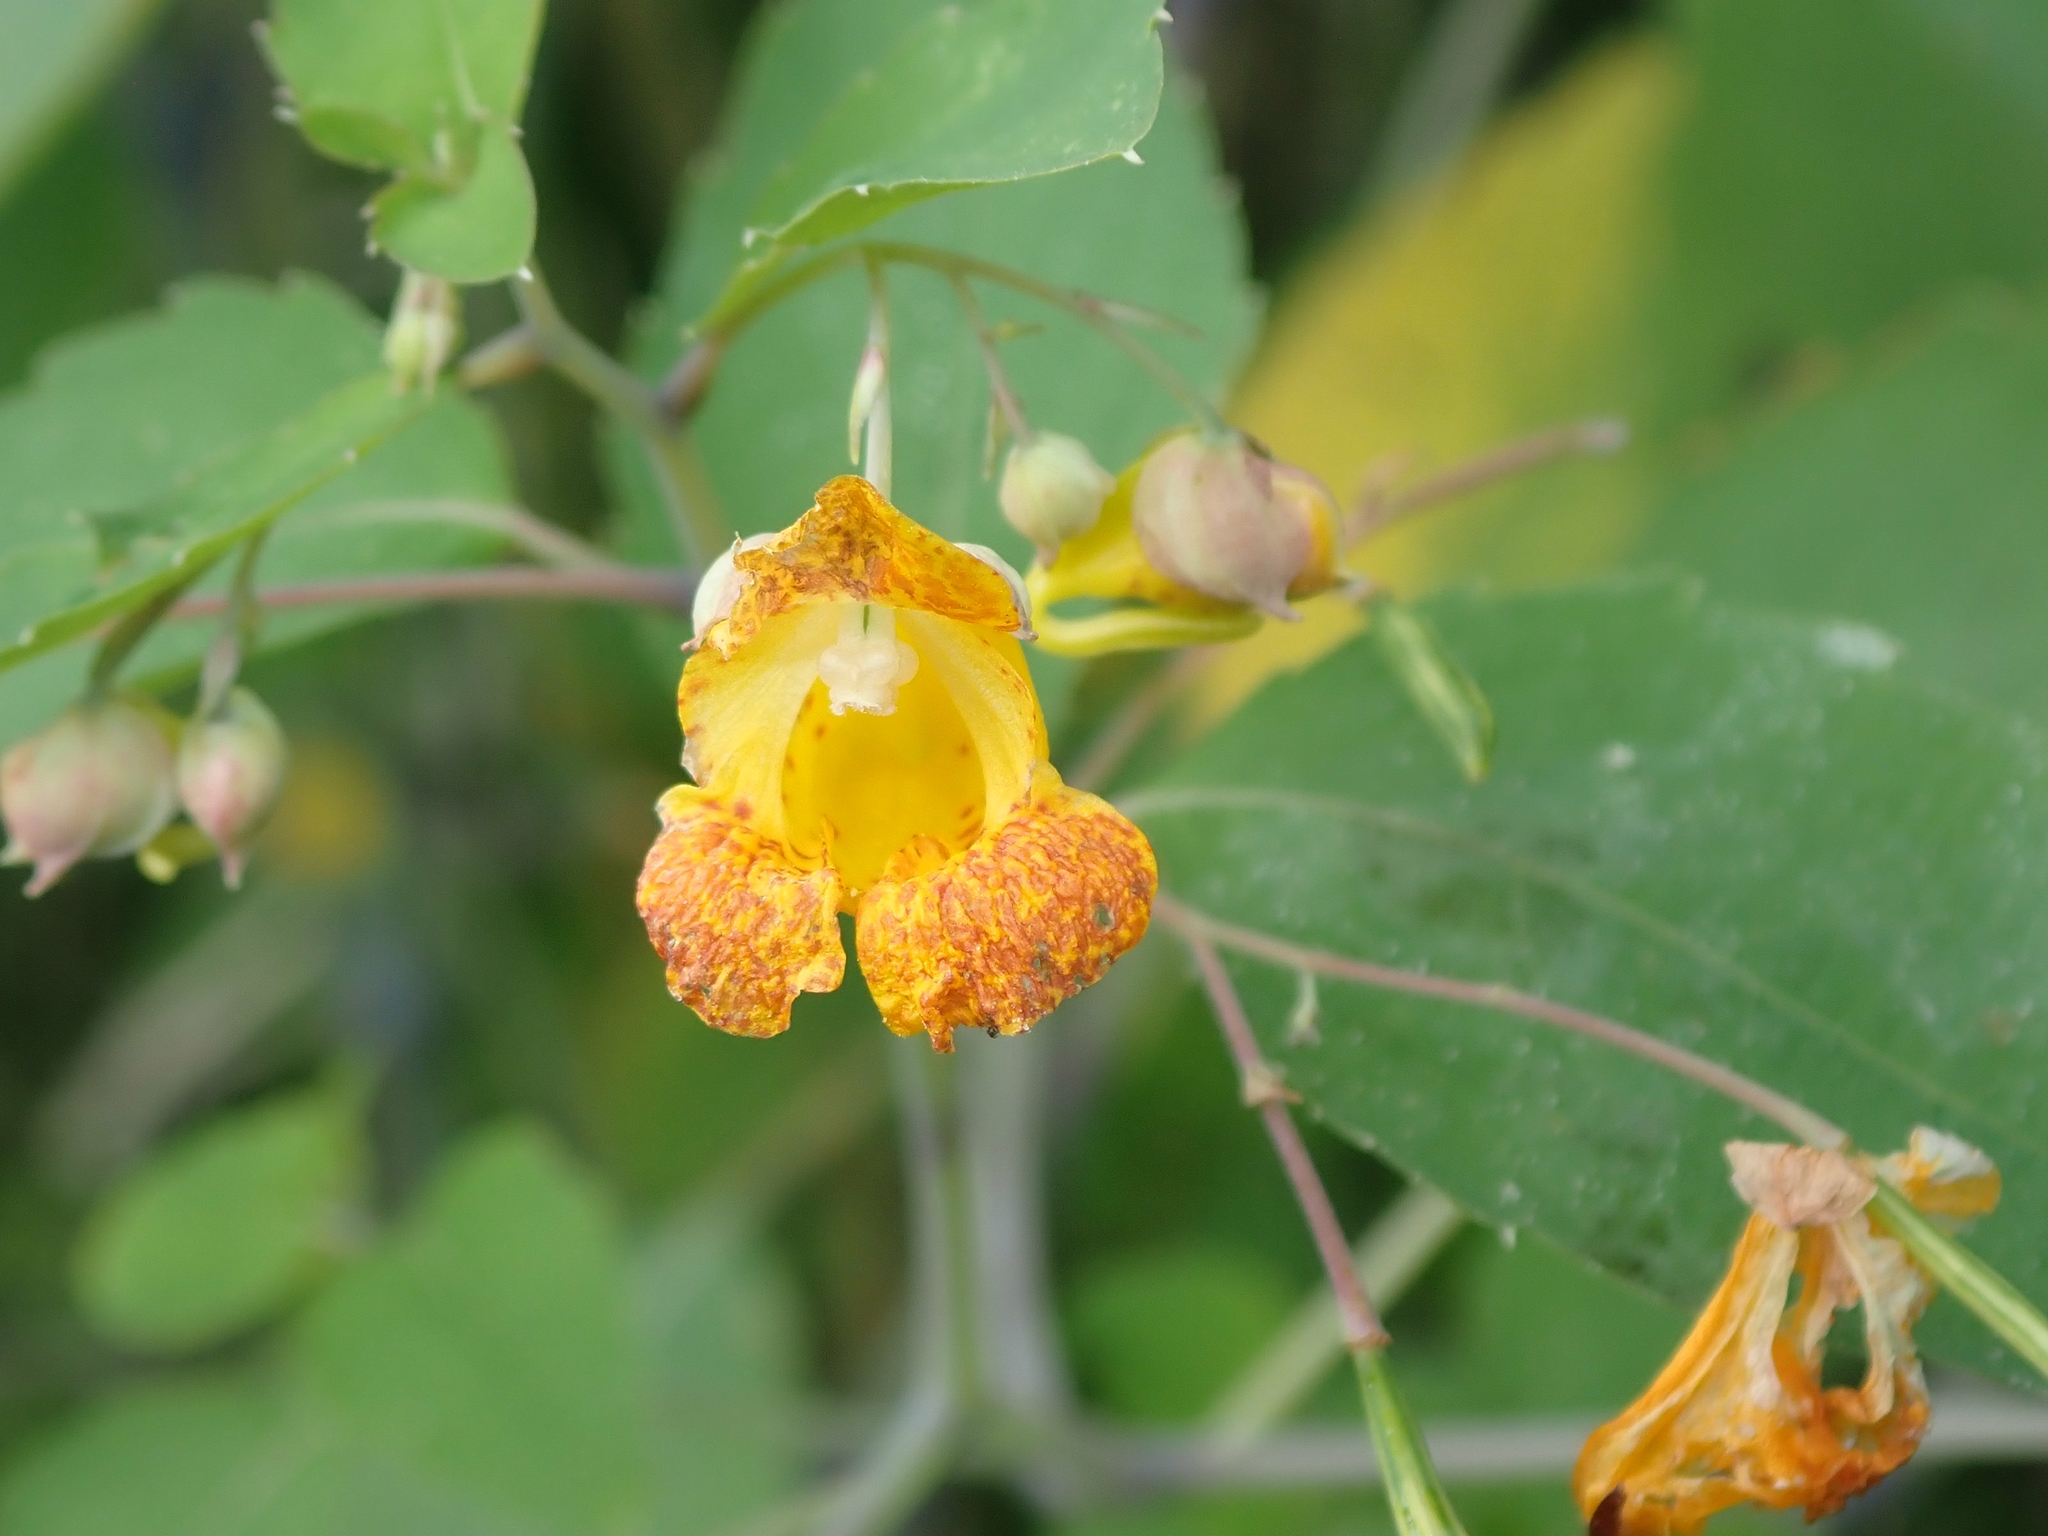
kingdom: Plantae
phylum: Tracheophyta
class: Magnoliopsida
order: Ericales
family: Balsaminaceae
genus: Impatiens
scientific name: Impatiens capensis
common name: Orange balsam
